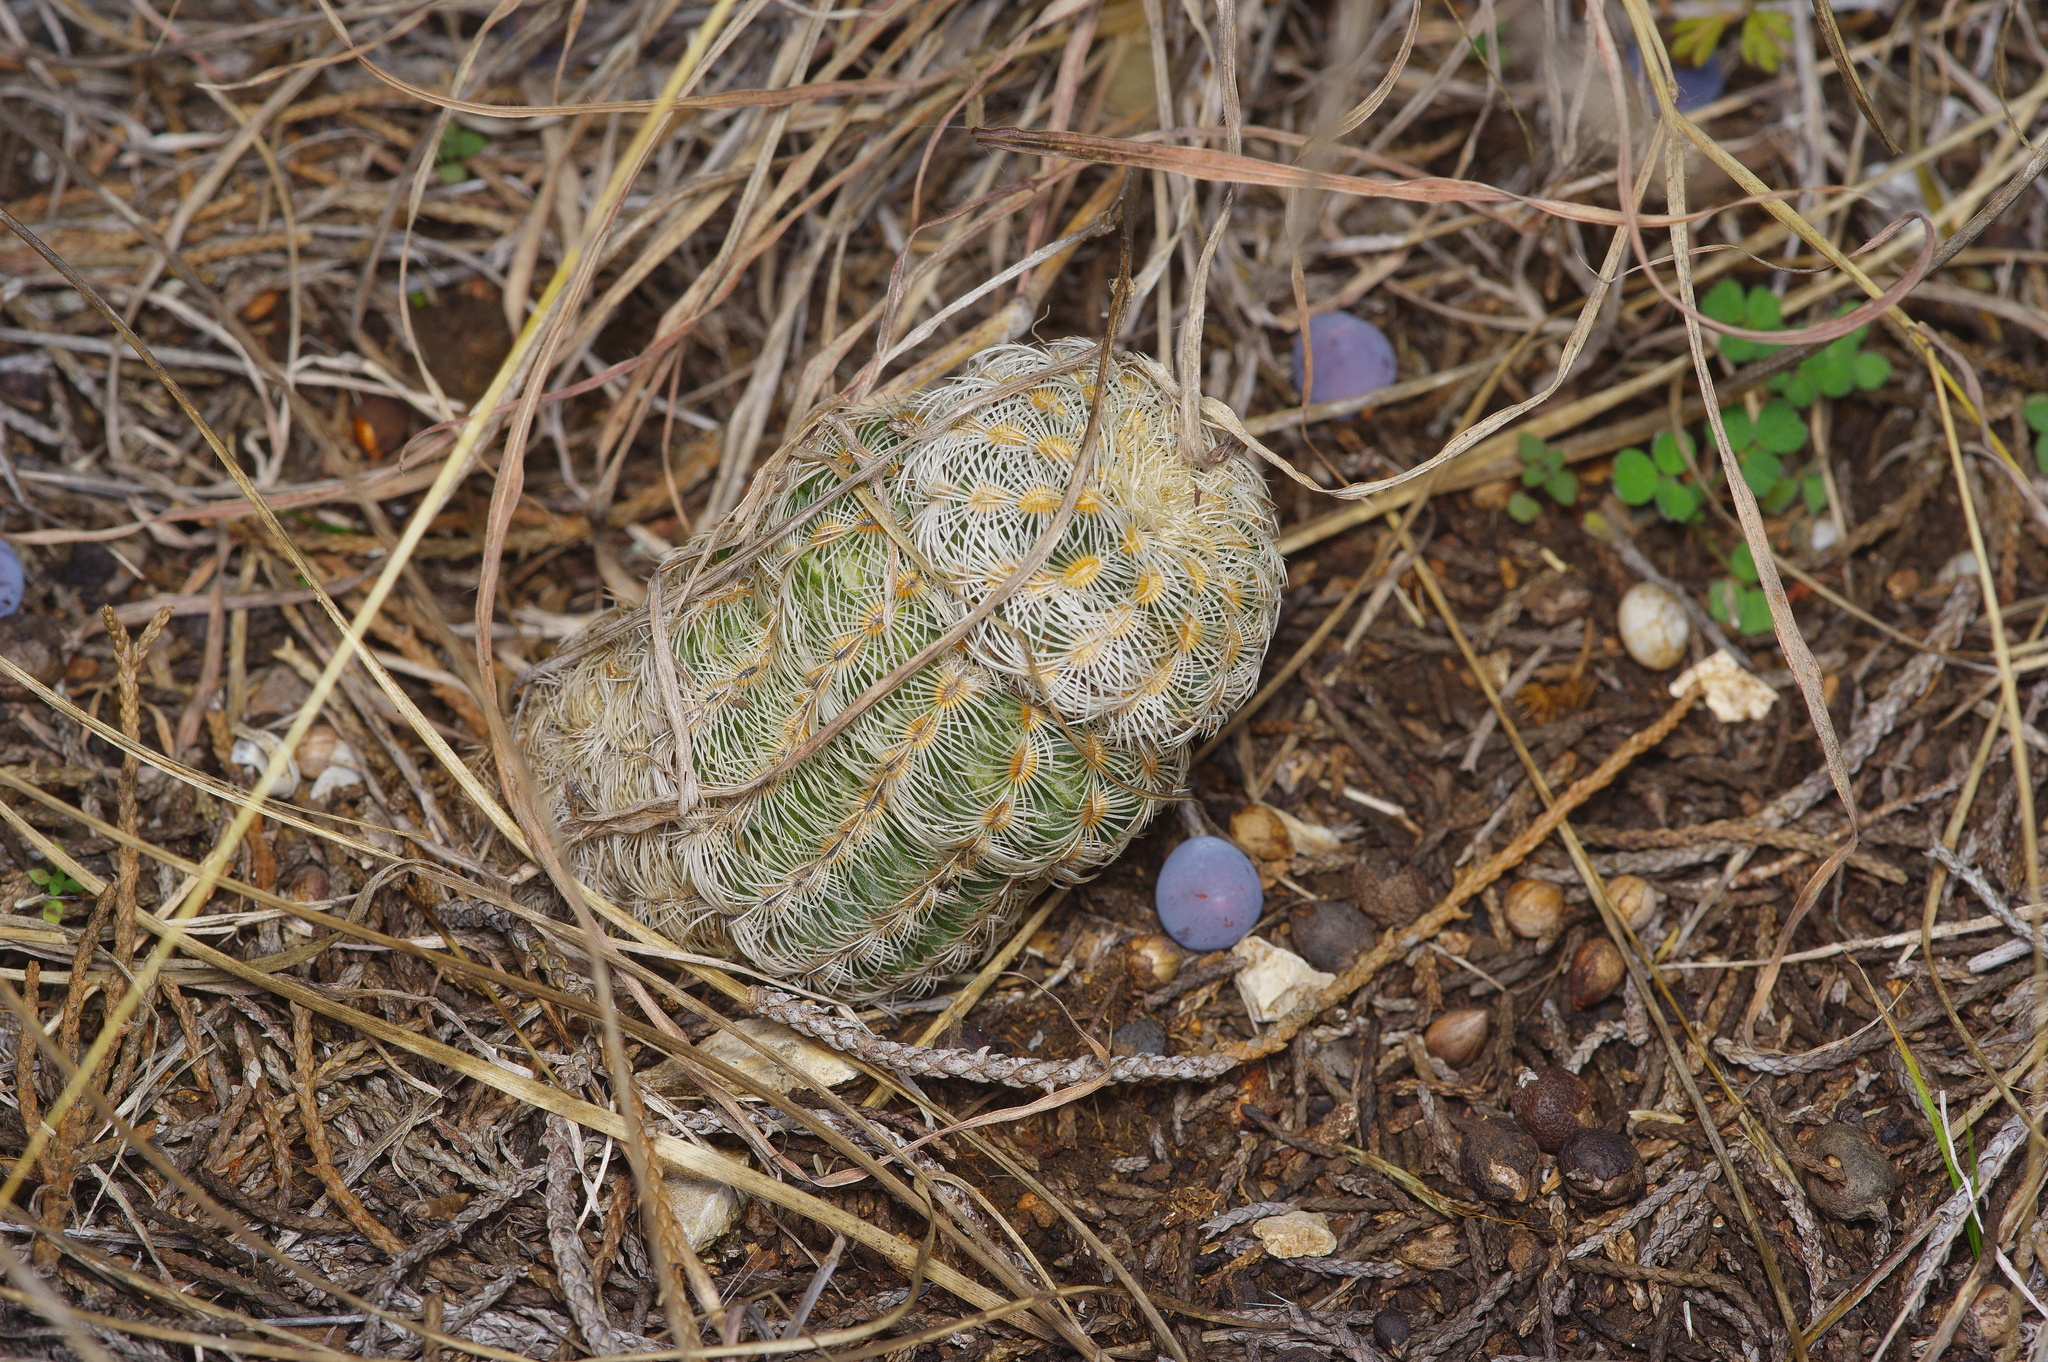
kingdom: Plantae
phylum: Tracheophyta
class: Magnoliopsida
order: Caryophyllales
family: Cactaceae
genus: Echinocereus
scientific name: Echinocereus reichenbachii
